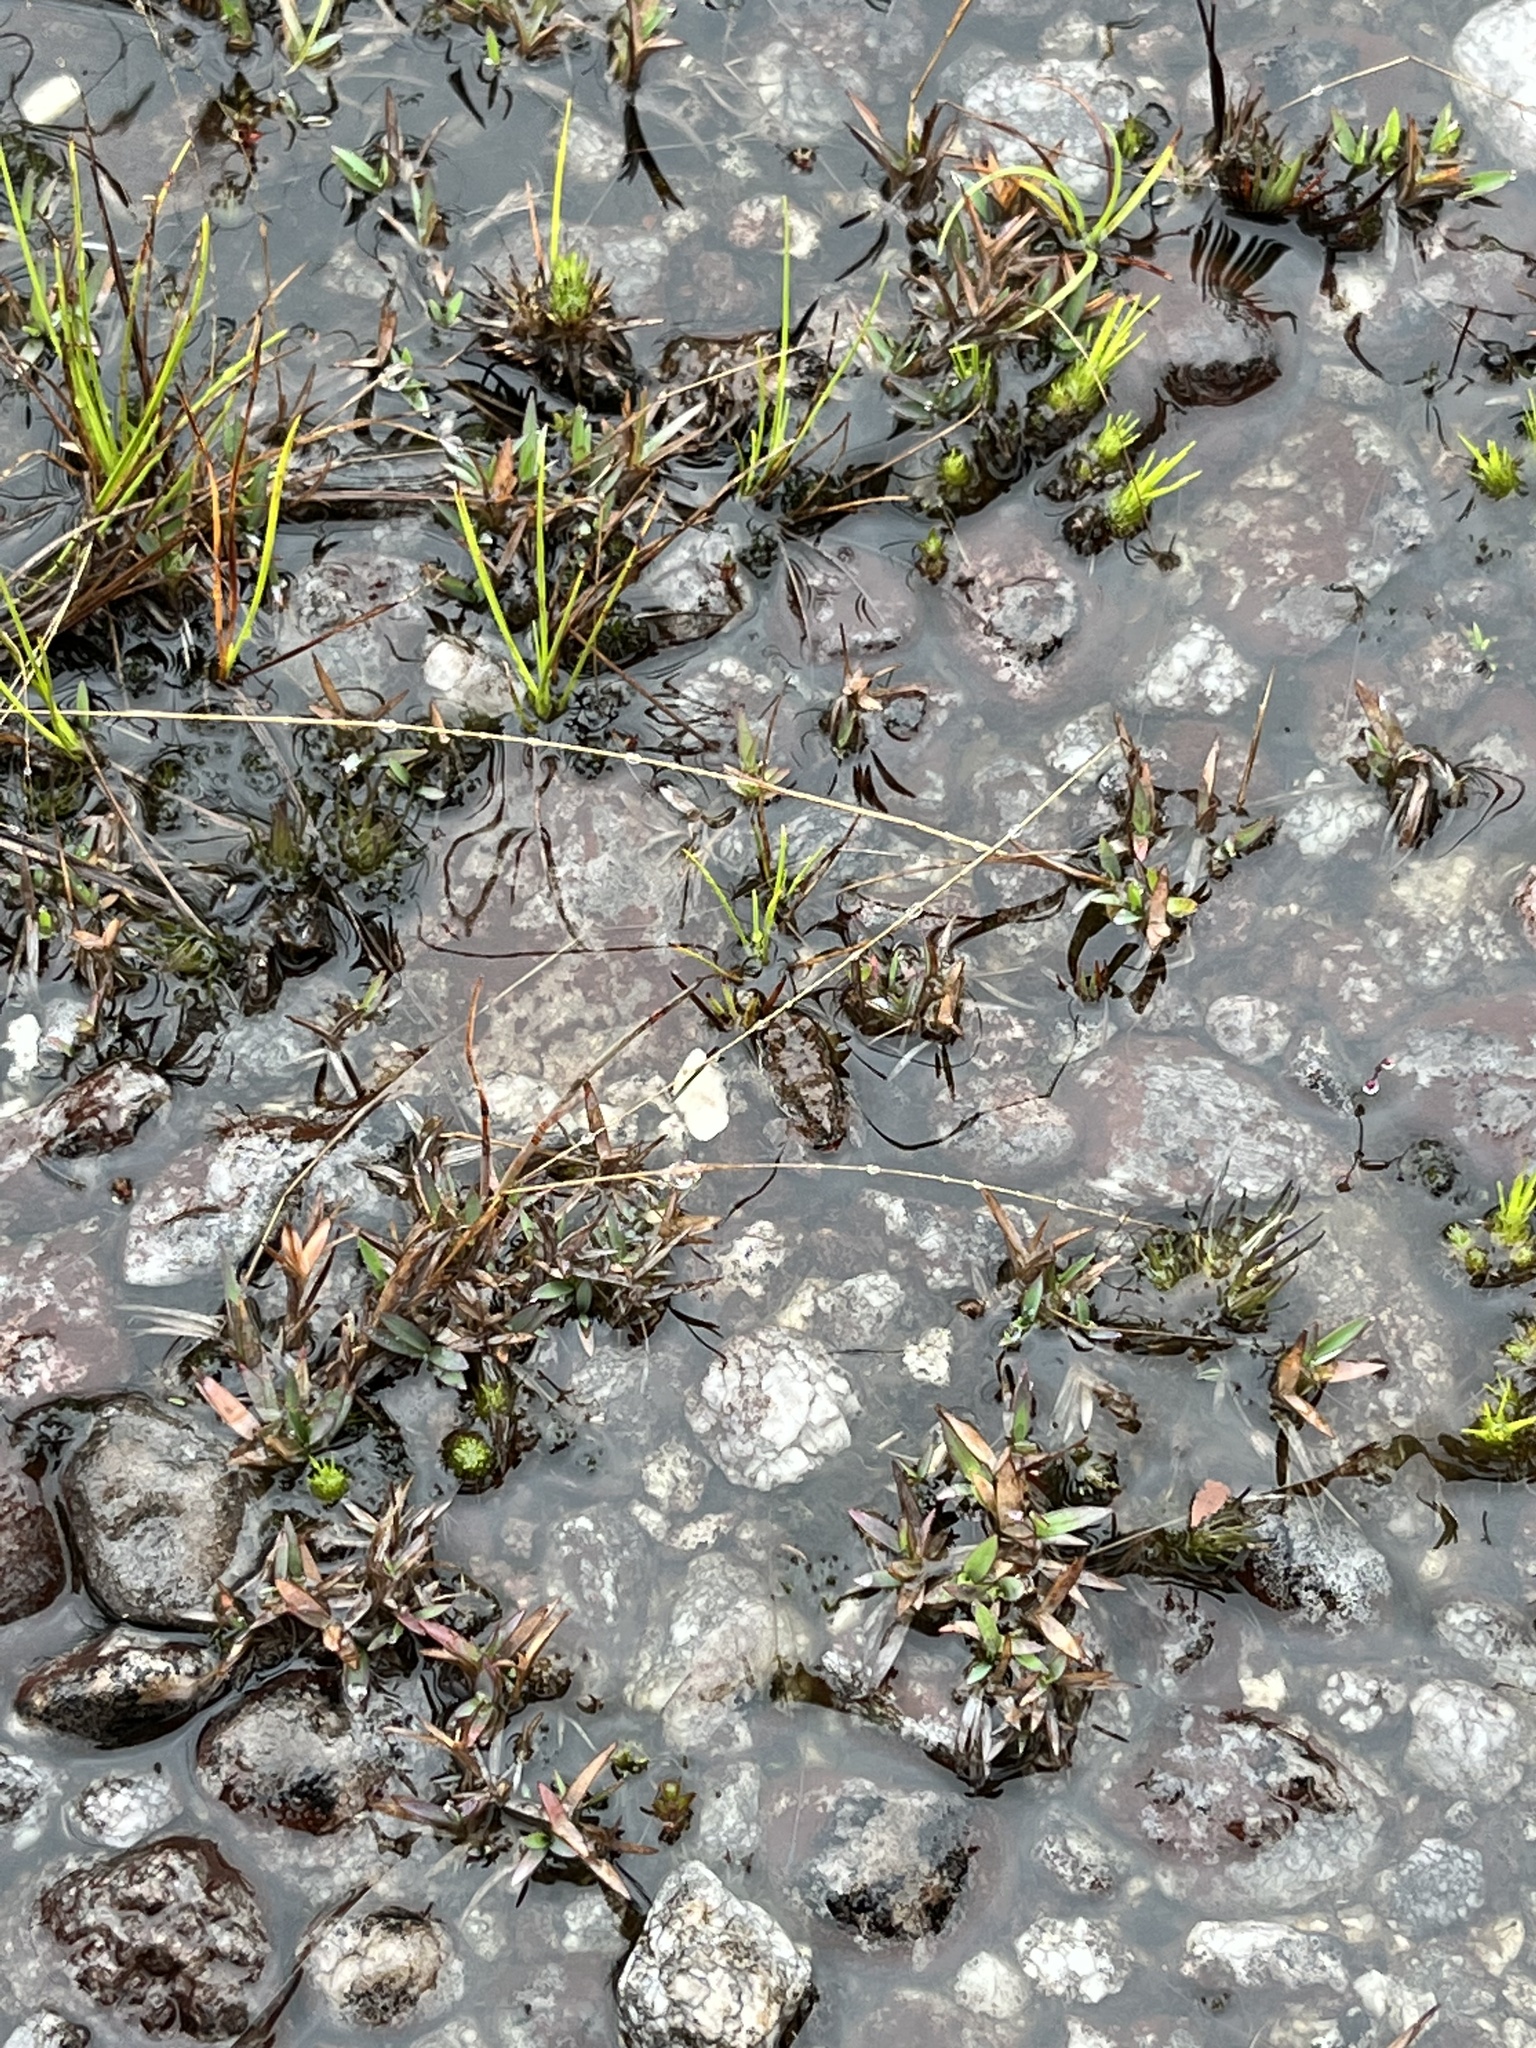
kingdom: Animalia
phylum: Chordata
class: Amphibia
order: Anura
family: Leptodactylidae
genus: Leptodactylus
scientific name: Leptodactylus rugosus
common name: Guyana white-lipped frog
